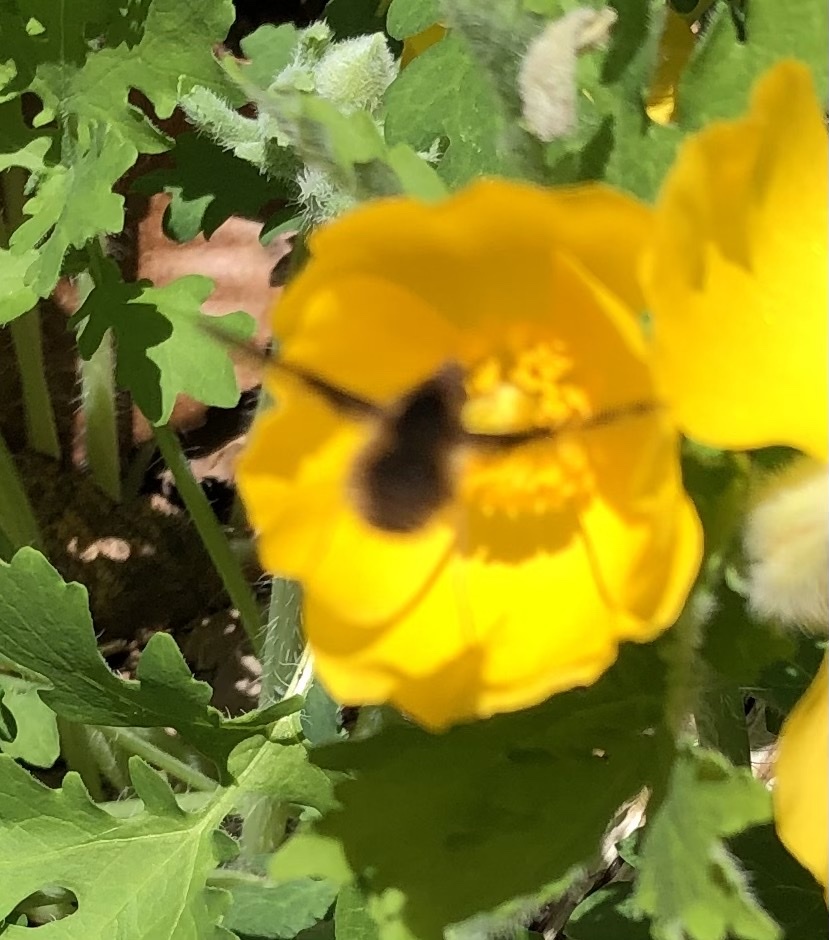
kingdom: Animalia
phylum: Arthropoda
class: Insecta
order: Diptera
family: Bombyliidae
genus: Bombylius
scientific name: Bombylius major
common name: Bee fly
